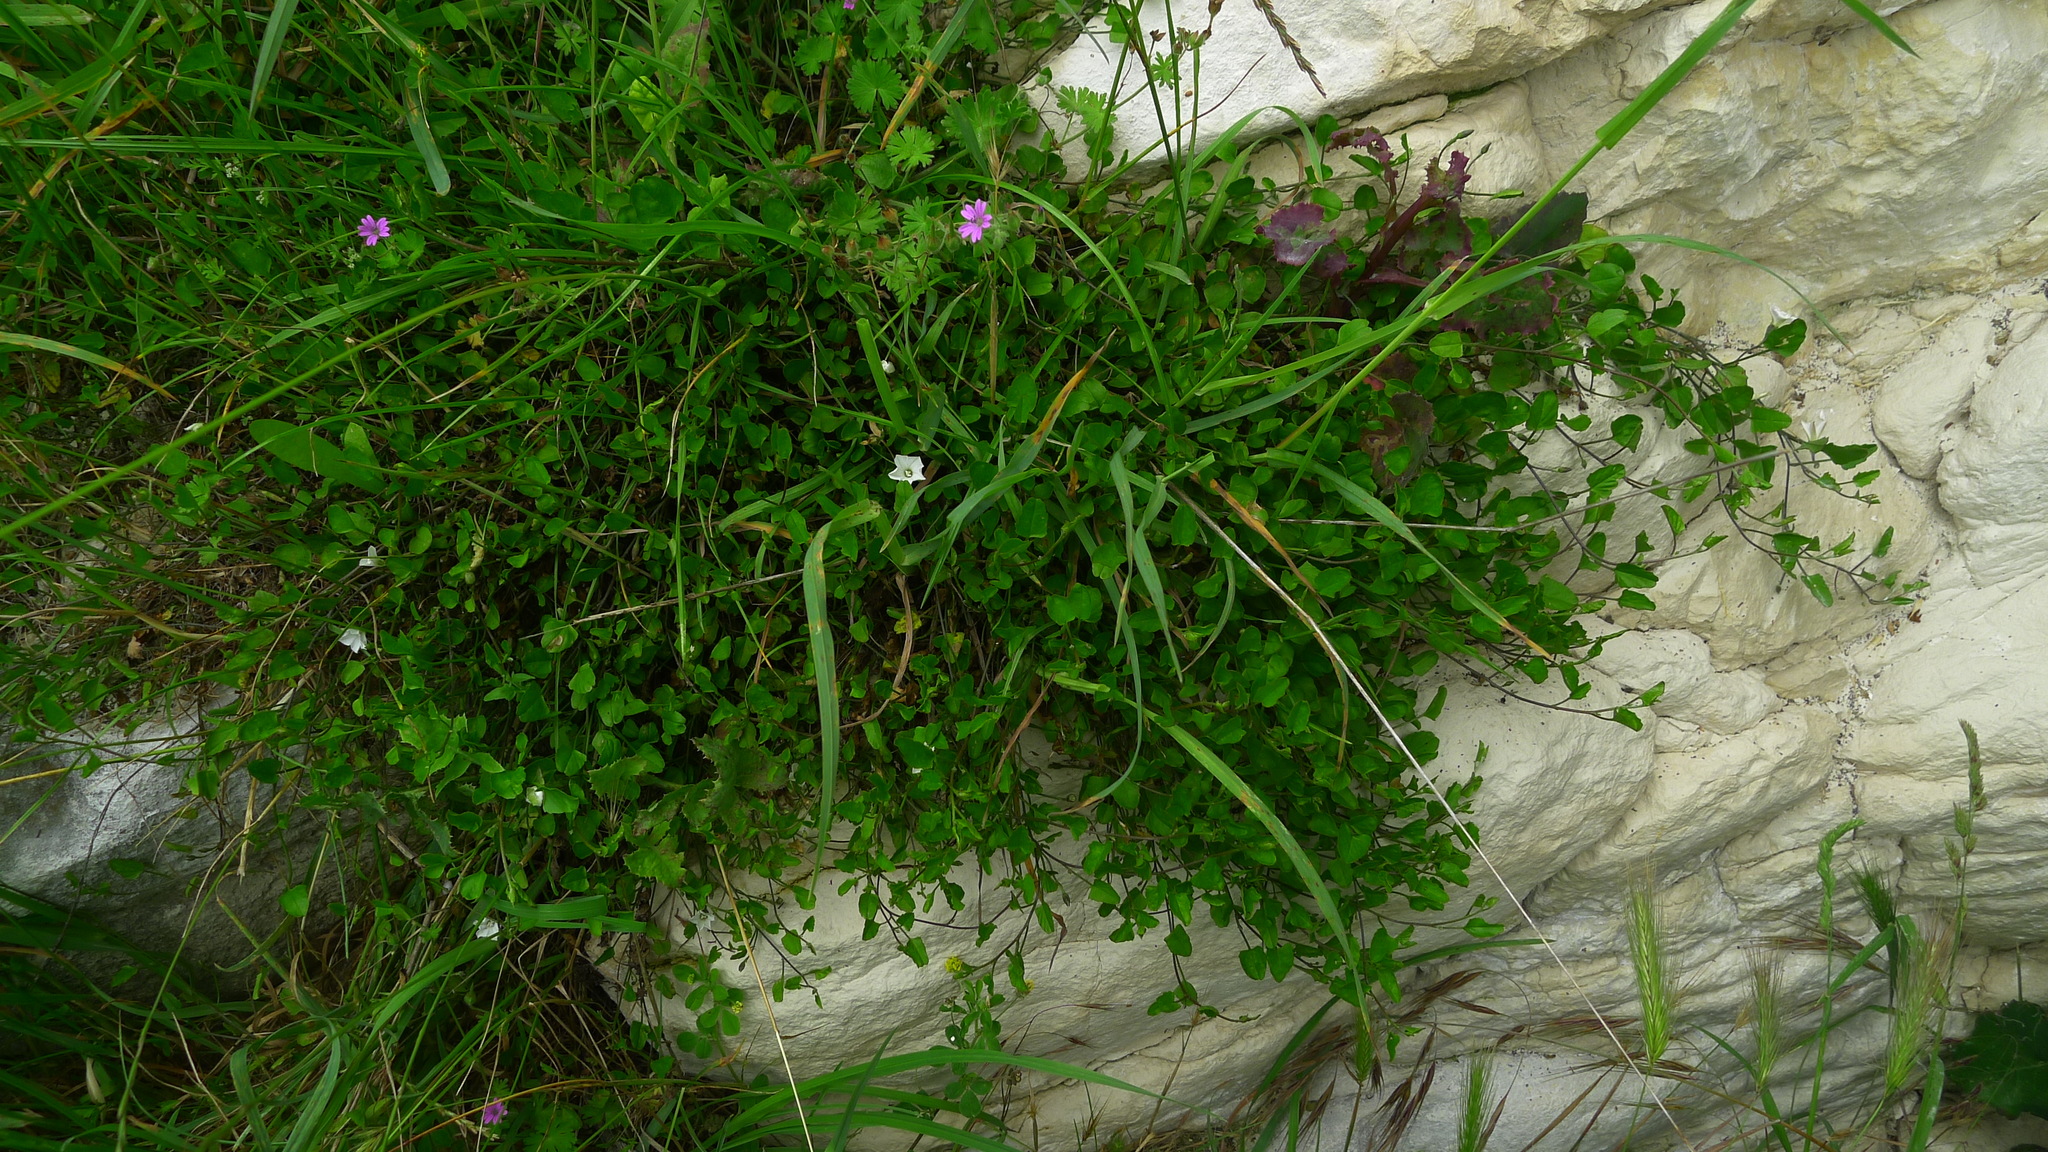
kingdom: Plantae
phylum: Tracheophyta
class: Magnoliopsida
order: Solanales
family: Convolvulaceae
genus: Convolvulus
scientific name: Convolvulus waitaha
